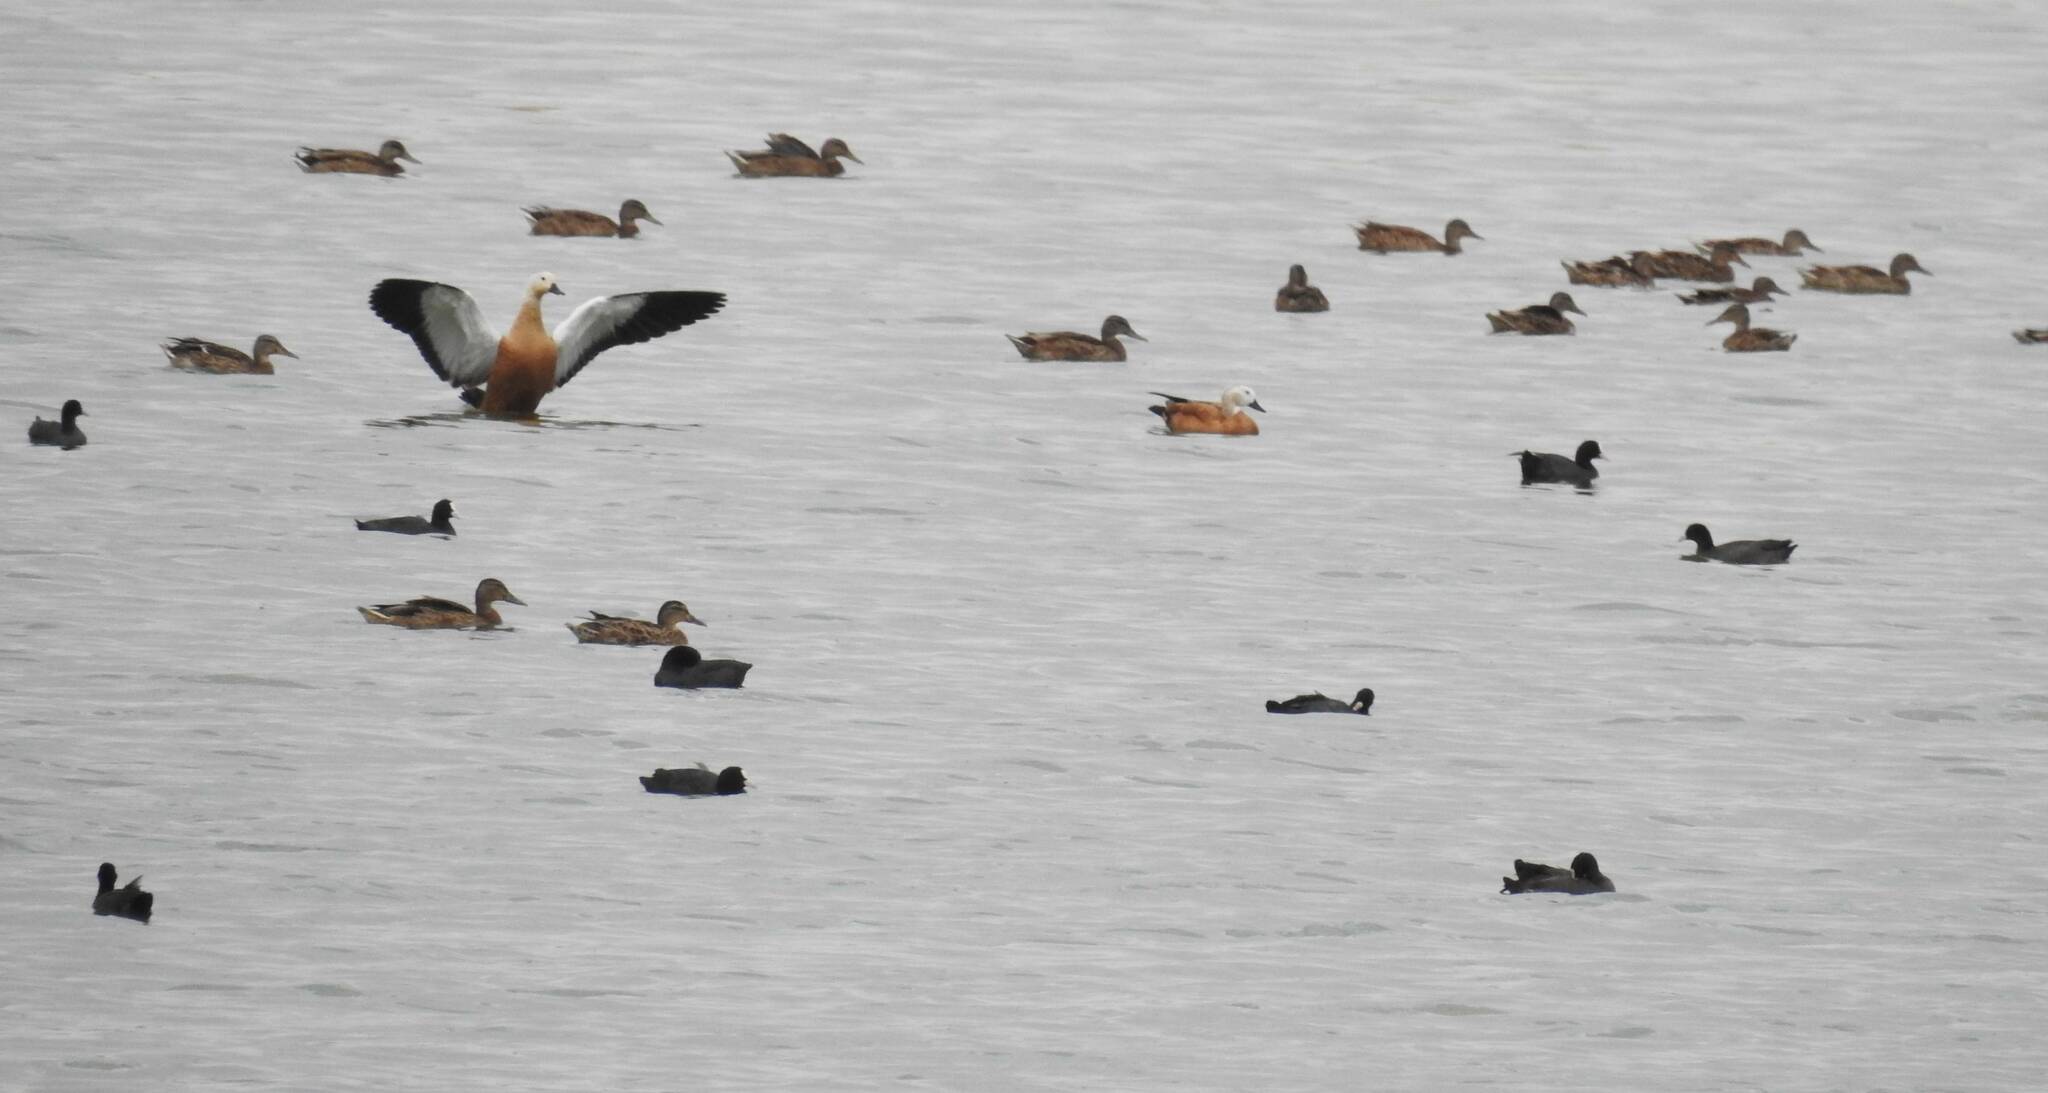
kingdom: Animalia
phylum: Chordata
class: Aves
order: Anseriformes
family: Anatidae
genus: Tadorna
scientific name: Tadorna ferruginea
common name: Ruddy shelduck
